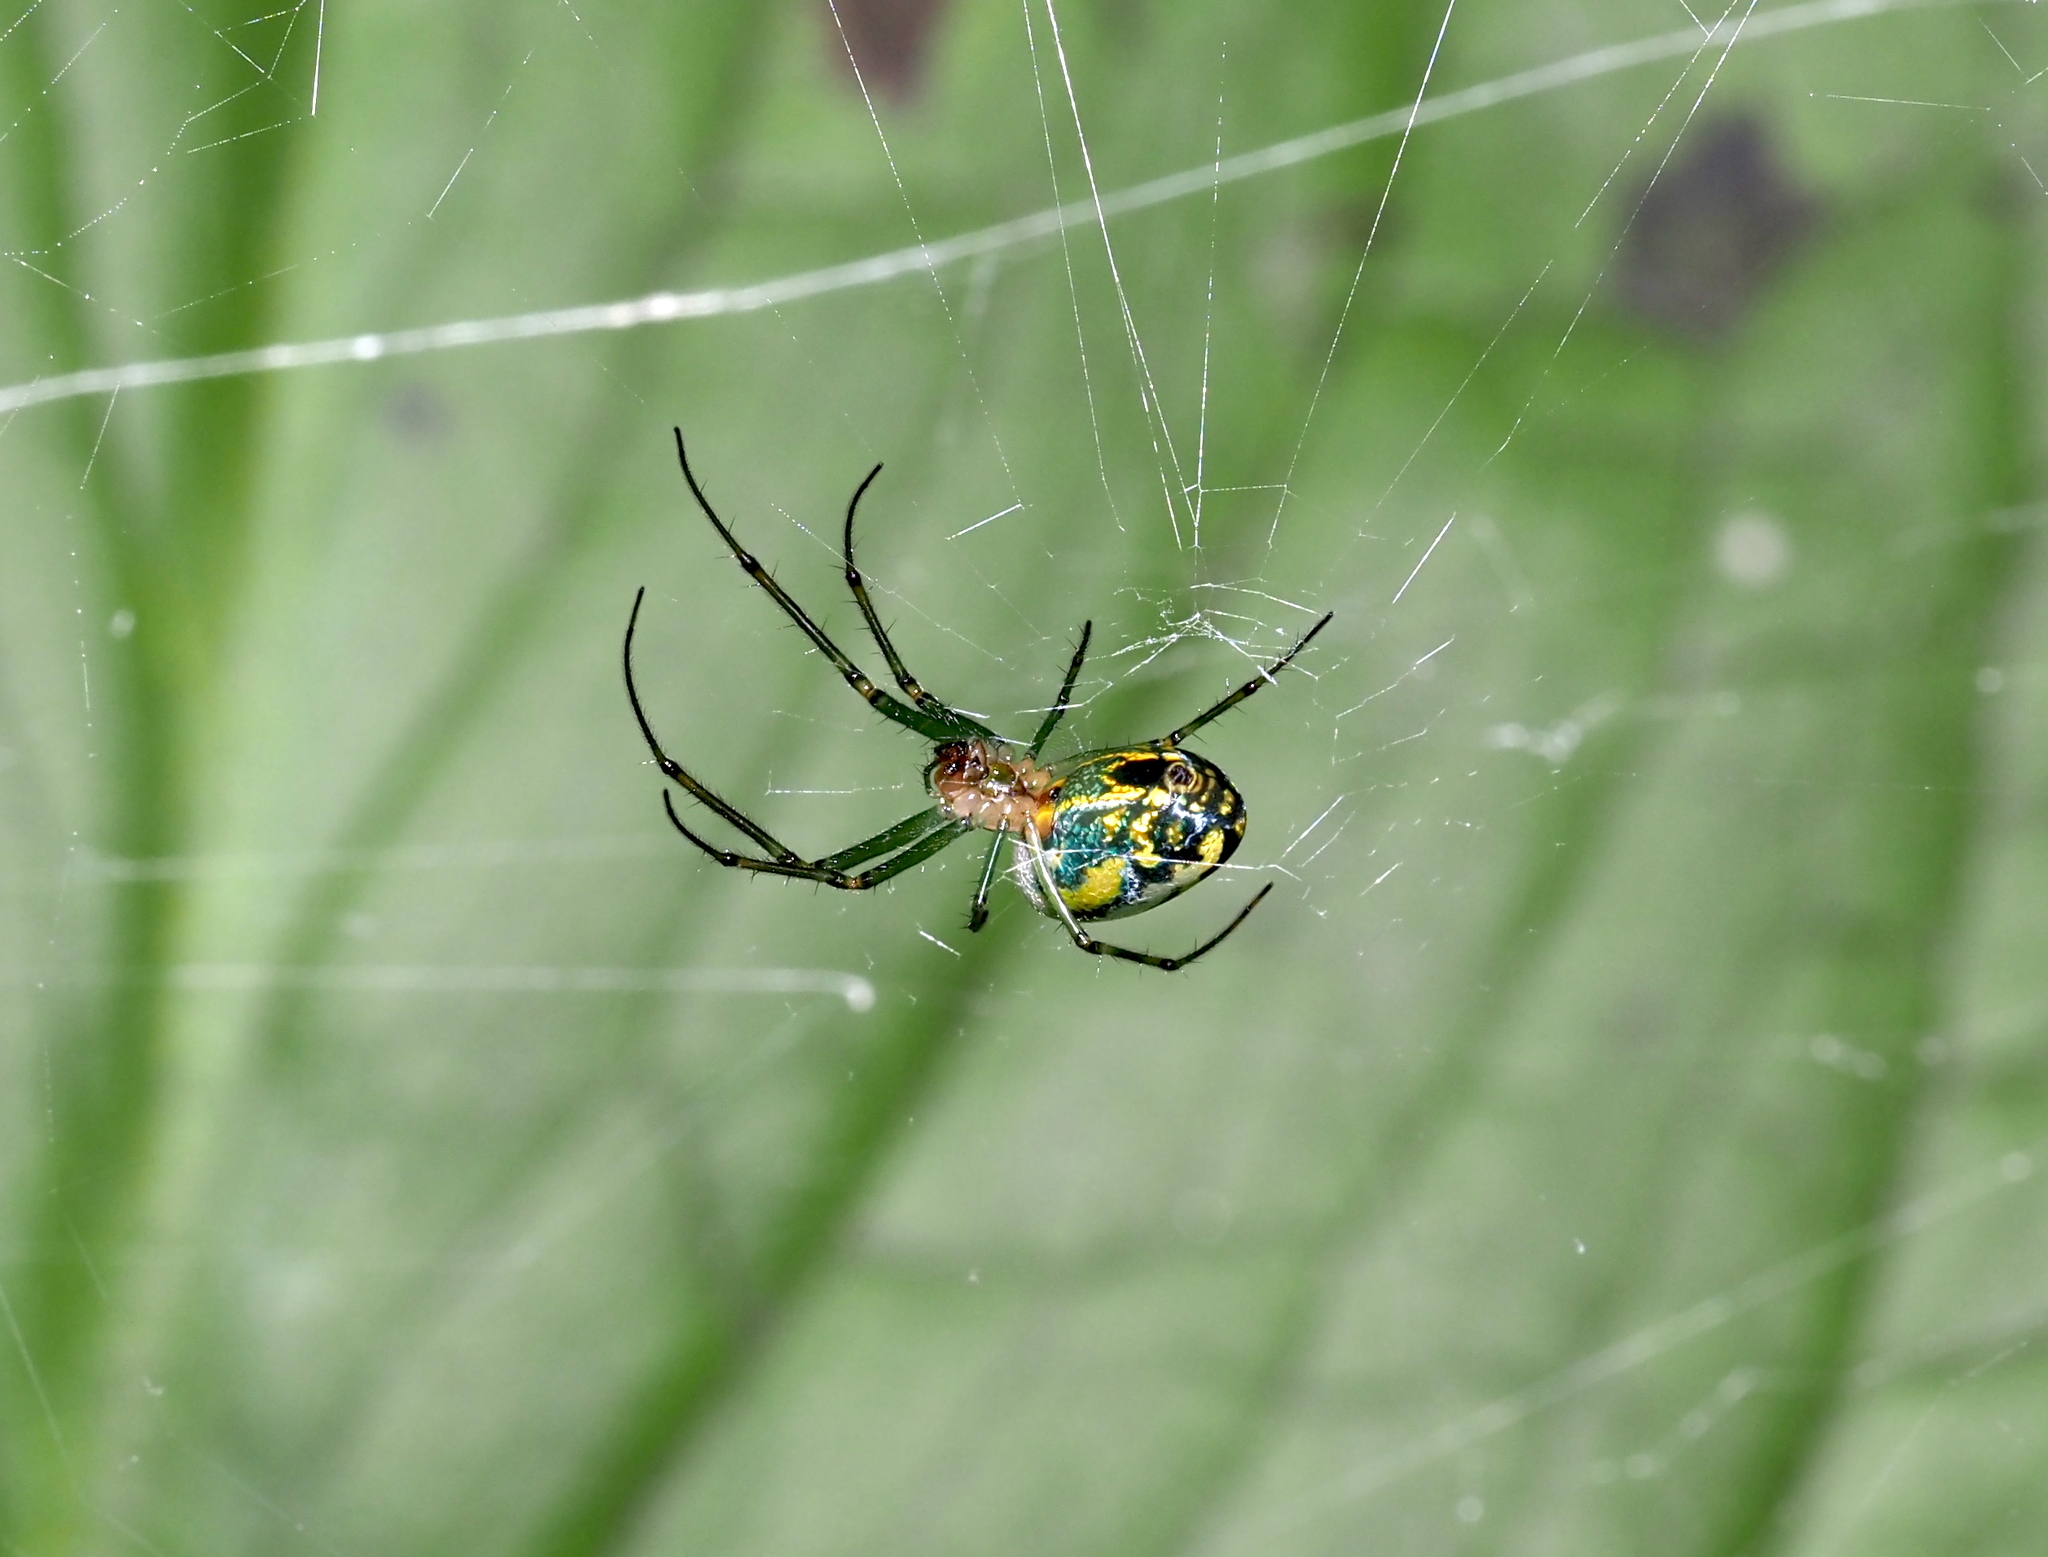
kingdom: Animalia
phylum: Arthropoda
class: Arachnida
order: Araneae
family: Tetragnathidae
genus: Leucauge
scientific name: Leucauge venusta
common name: Longjawed orb weavers
